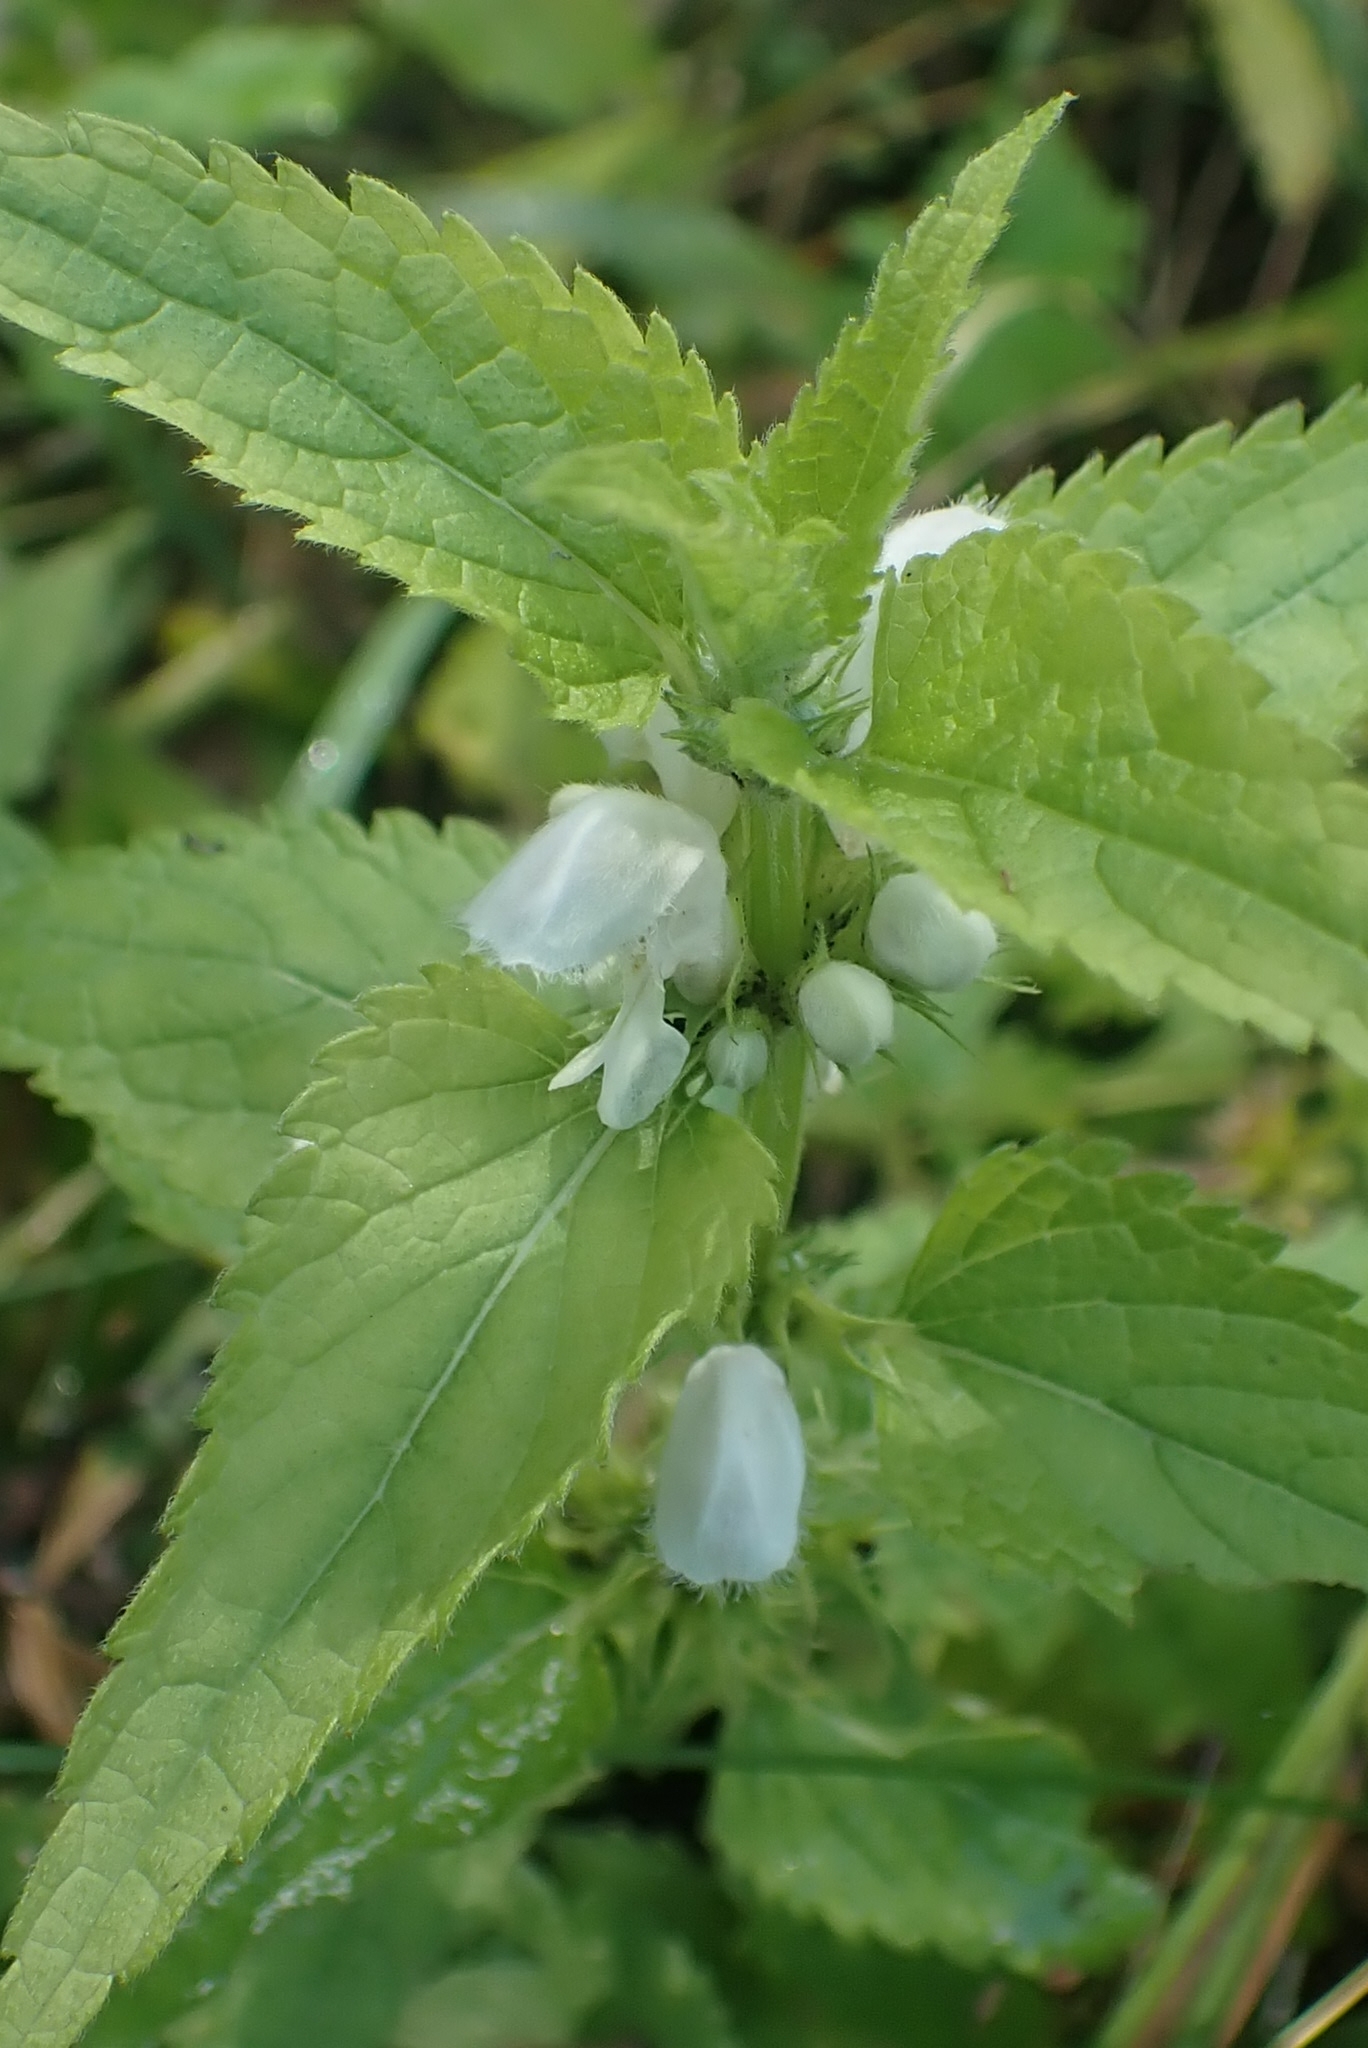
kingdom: Plantae
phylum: Tracheophyta
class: Magnoliopsida
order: Lamiales
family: Lamiaceae
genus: Lamium
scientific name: Lamium album
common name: White dead-nettle
